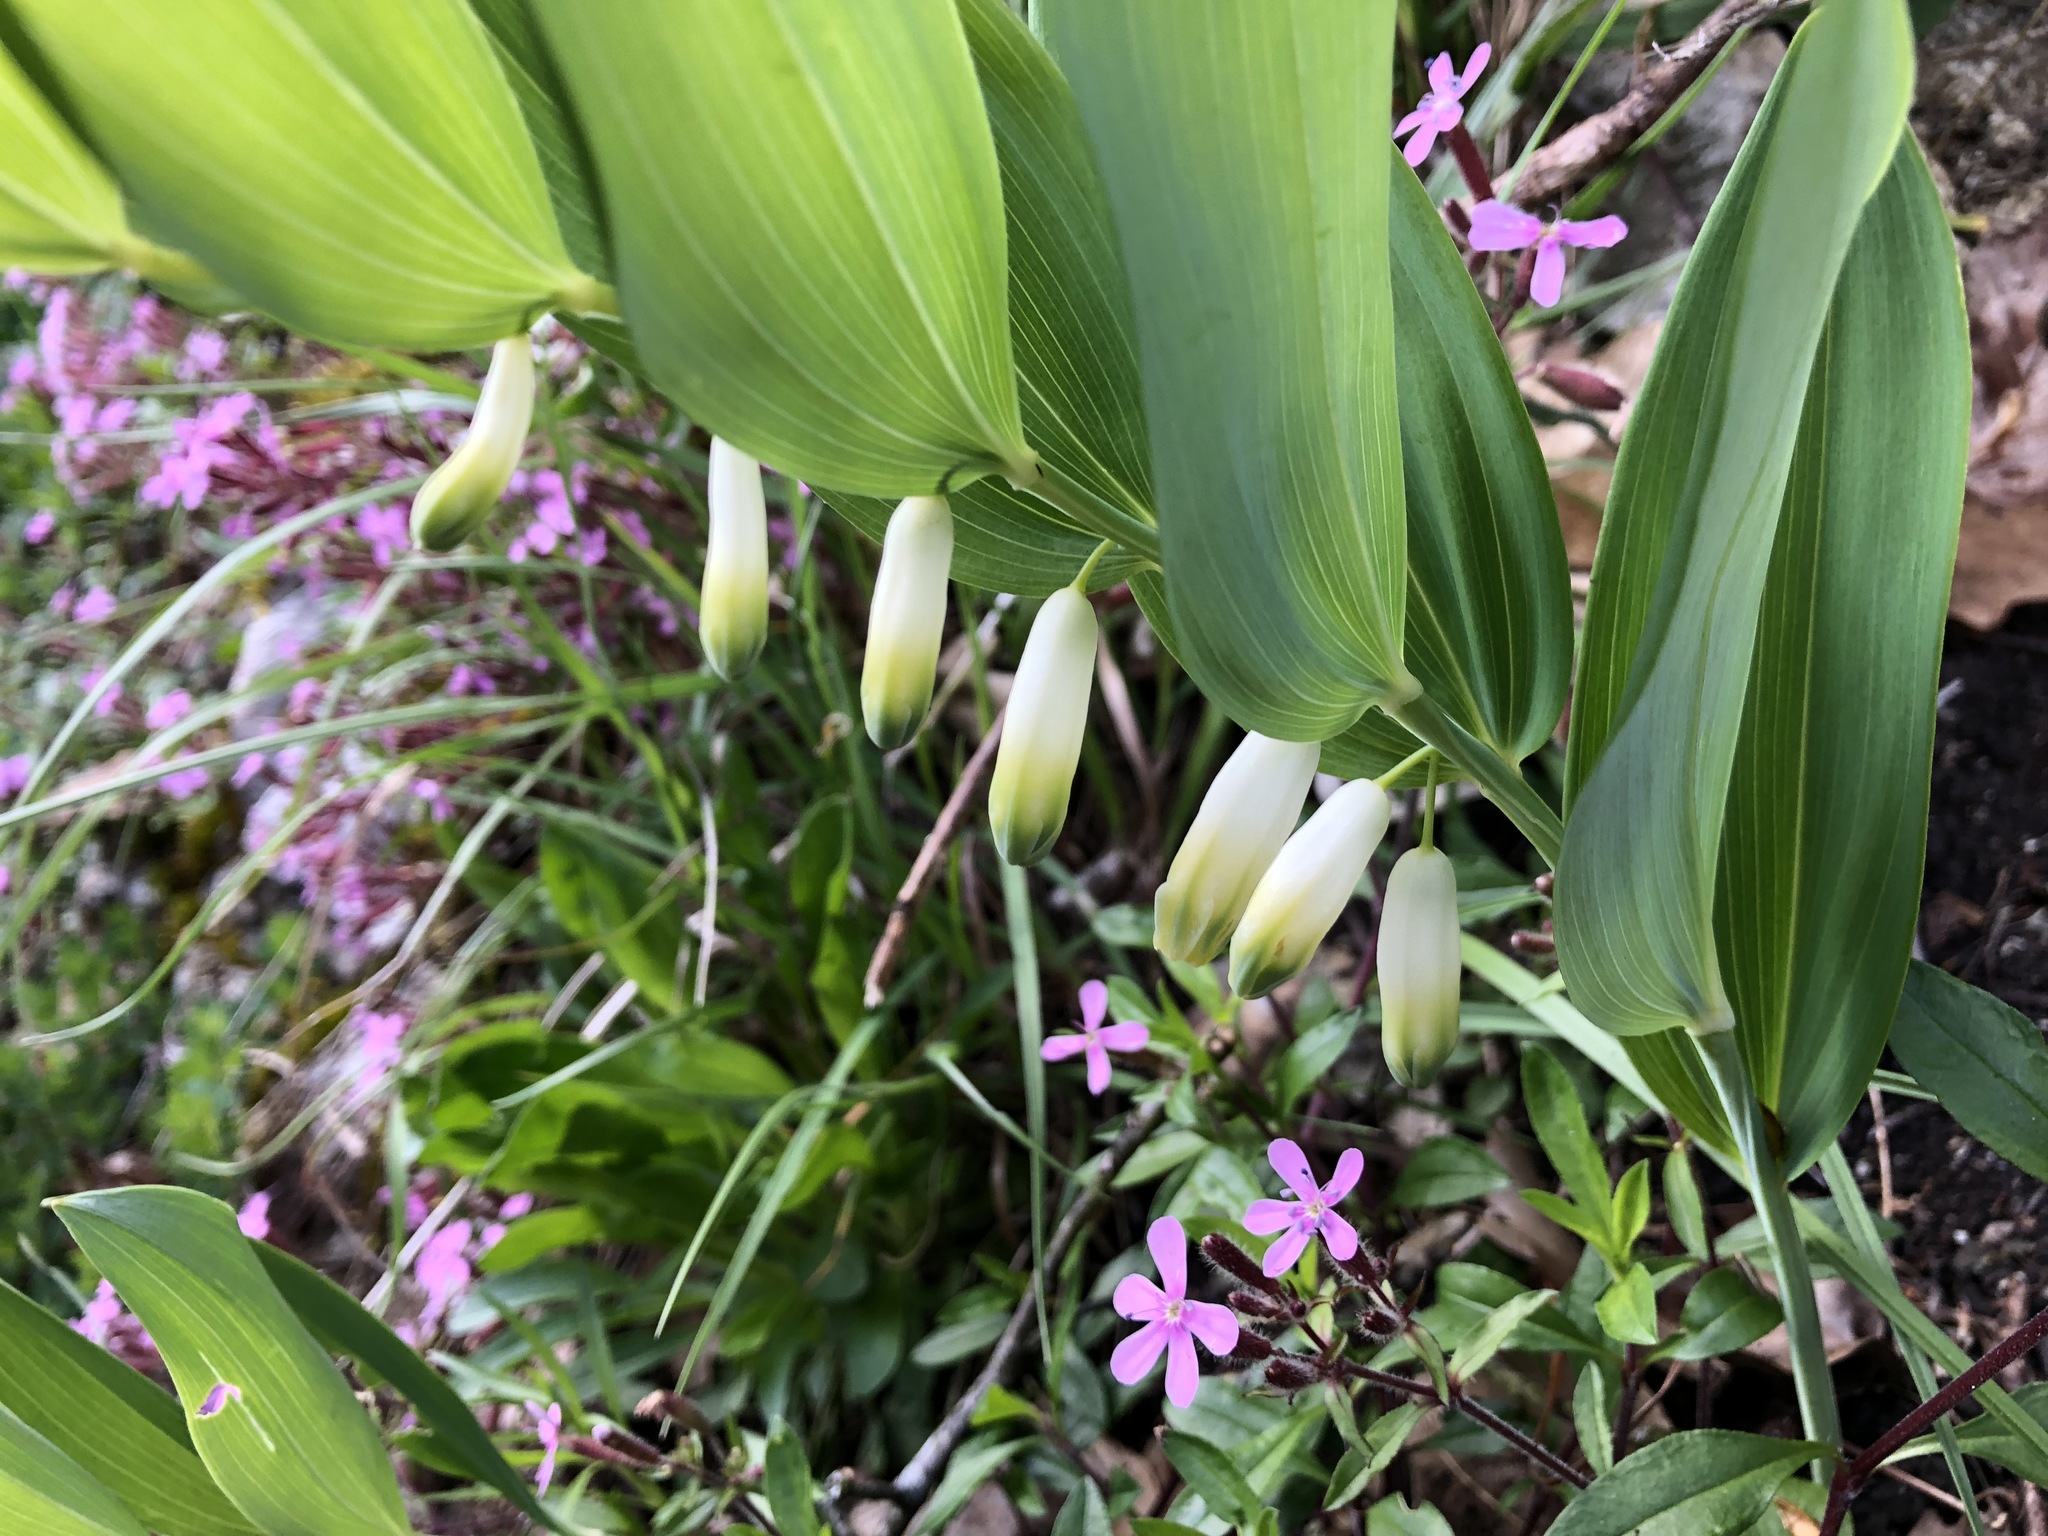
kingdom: Plantae
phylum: Tracheophyta
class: Liliopsida
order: Asparagales
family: Asparagaceae
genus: Polygonatum
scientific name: Polygonatum odoratum
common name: Angular solomon's-seal
